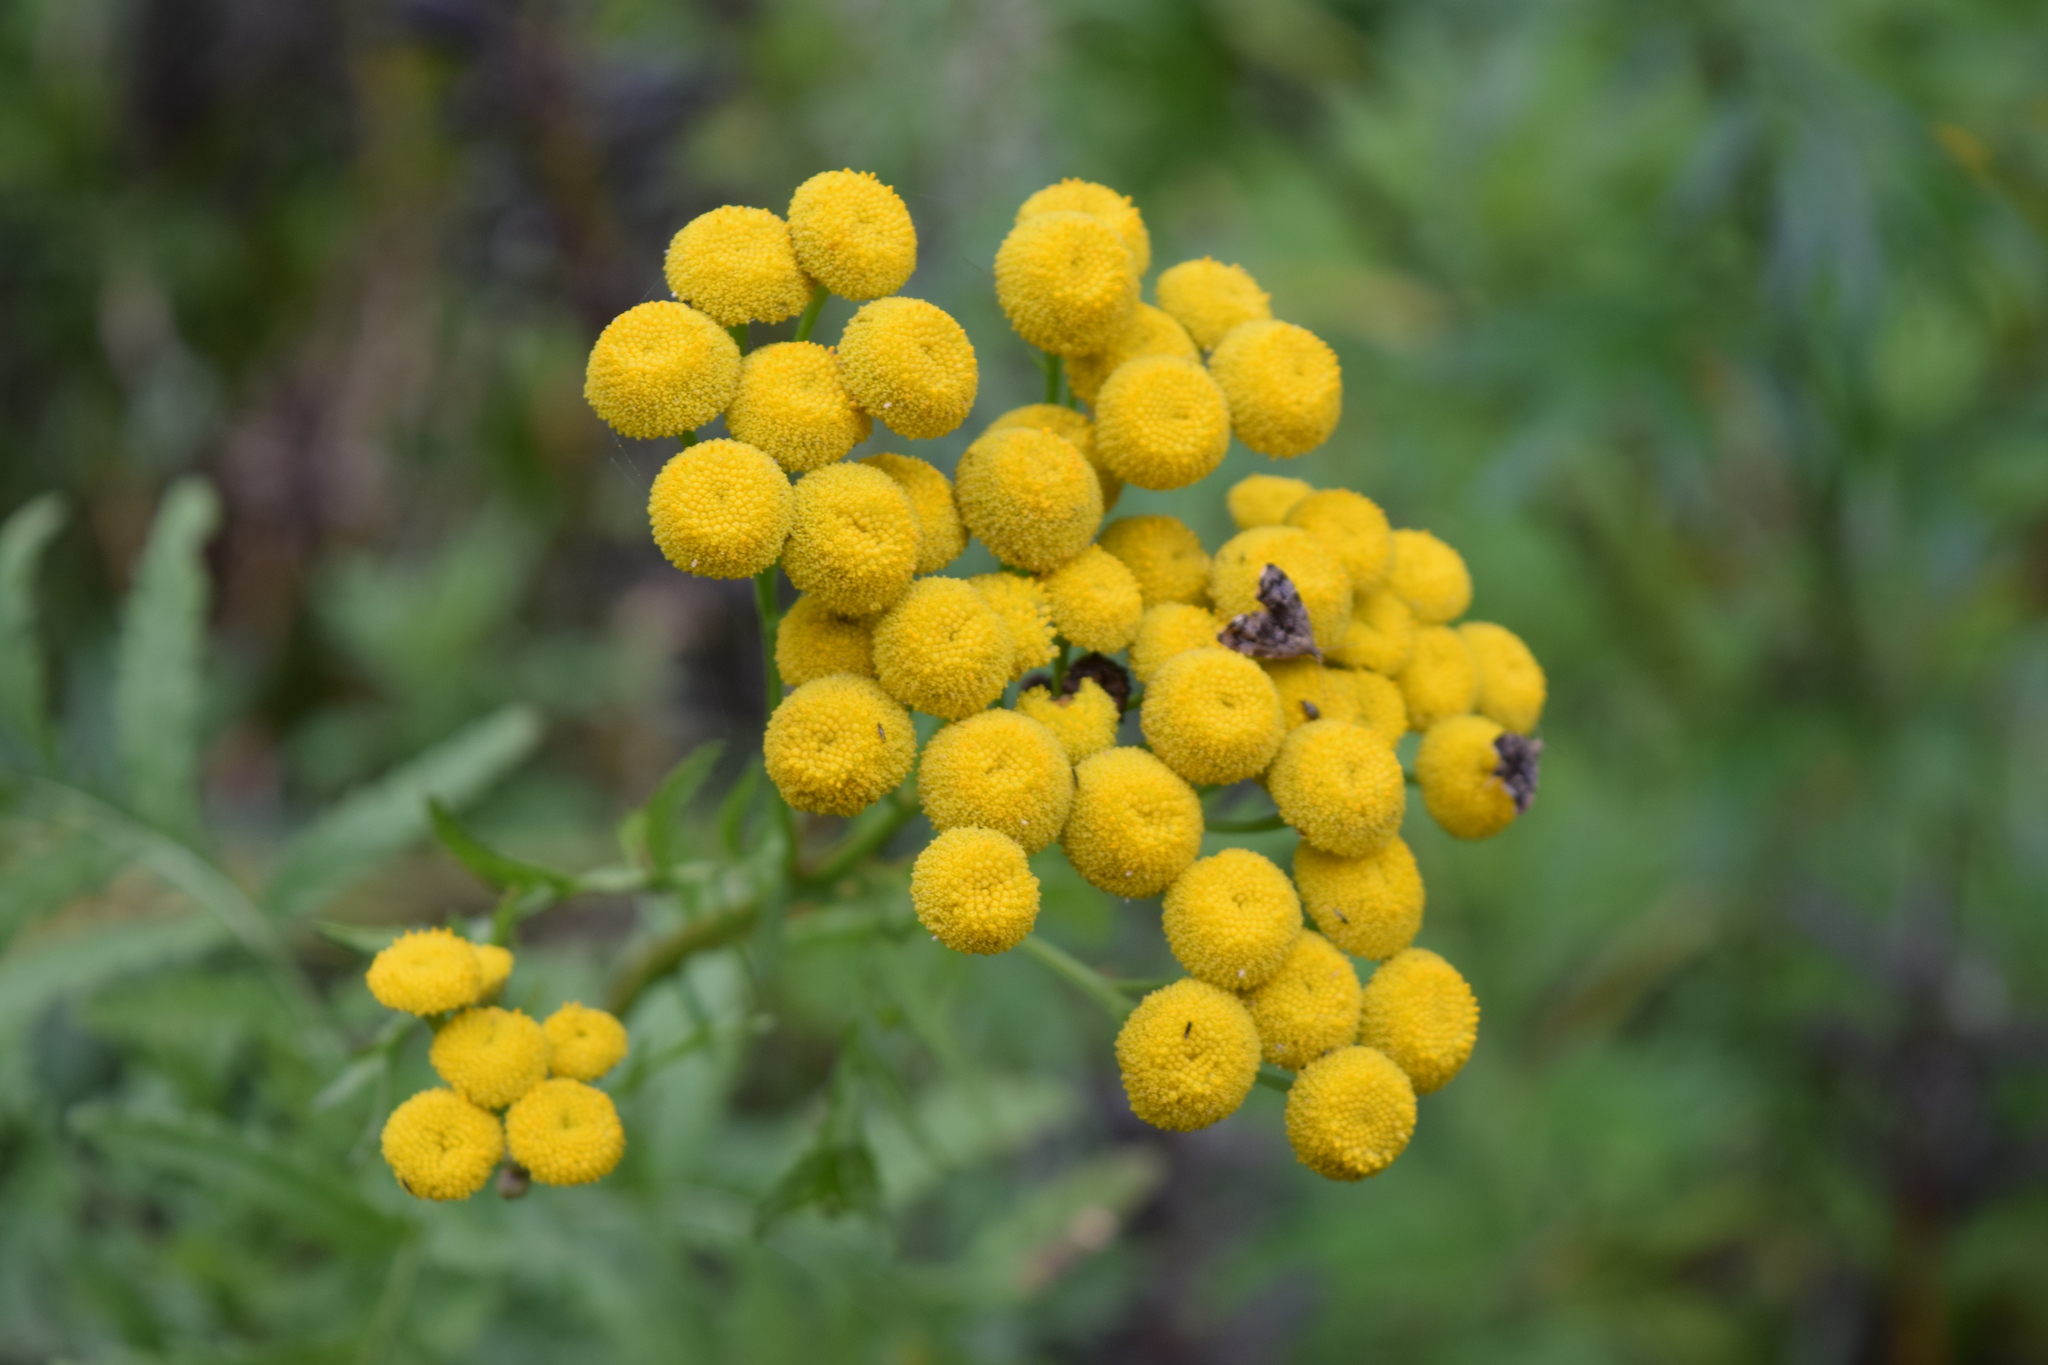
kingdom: Plantae
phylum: Tracheophyta
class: Magnoliopsida
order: Asterales
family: Asteraceae
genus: Tanacetum
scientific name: Tanacetum vulgare
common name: Common tansy
